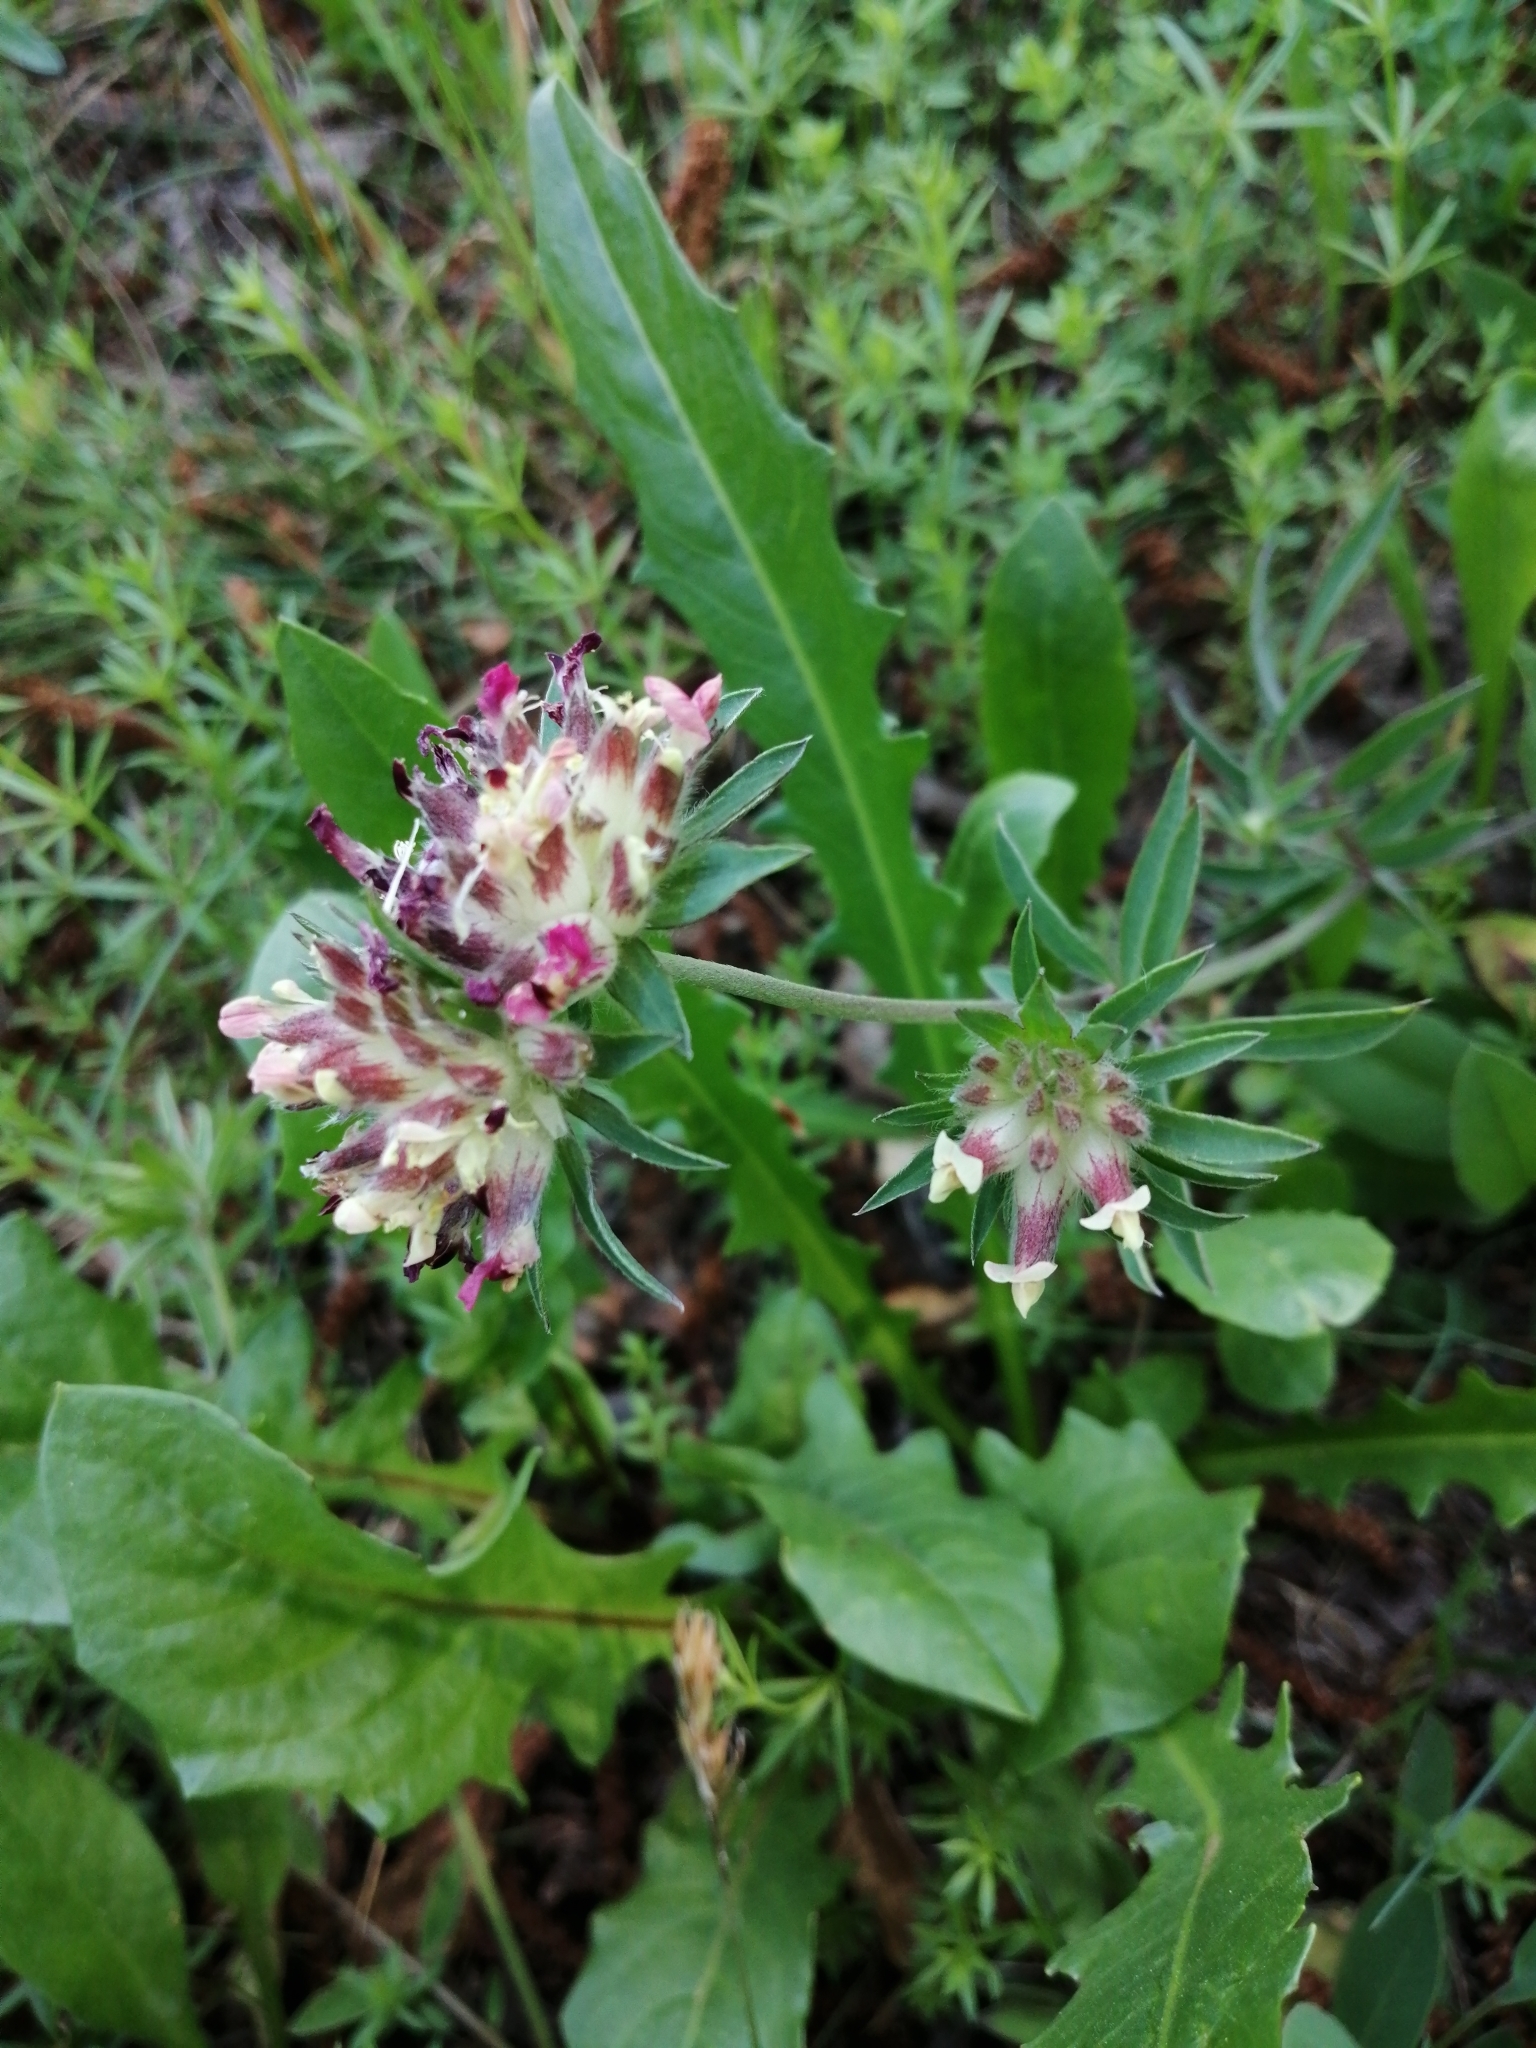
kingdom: Plantae
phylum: Tracheophyta
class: Magnoliopsida
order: Fabales
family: Fabaceae
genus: Anthyllis
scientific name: Anthyllis vulneraria
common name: Kidney vetch
